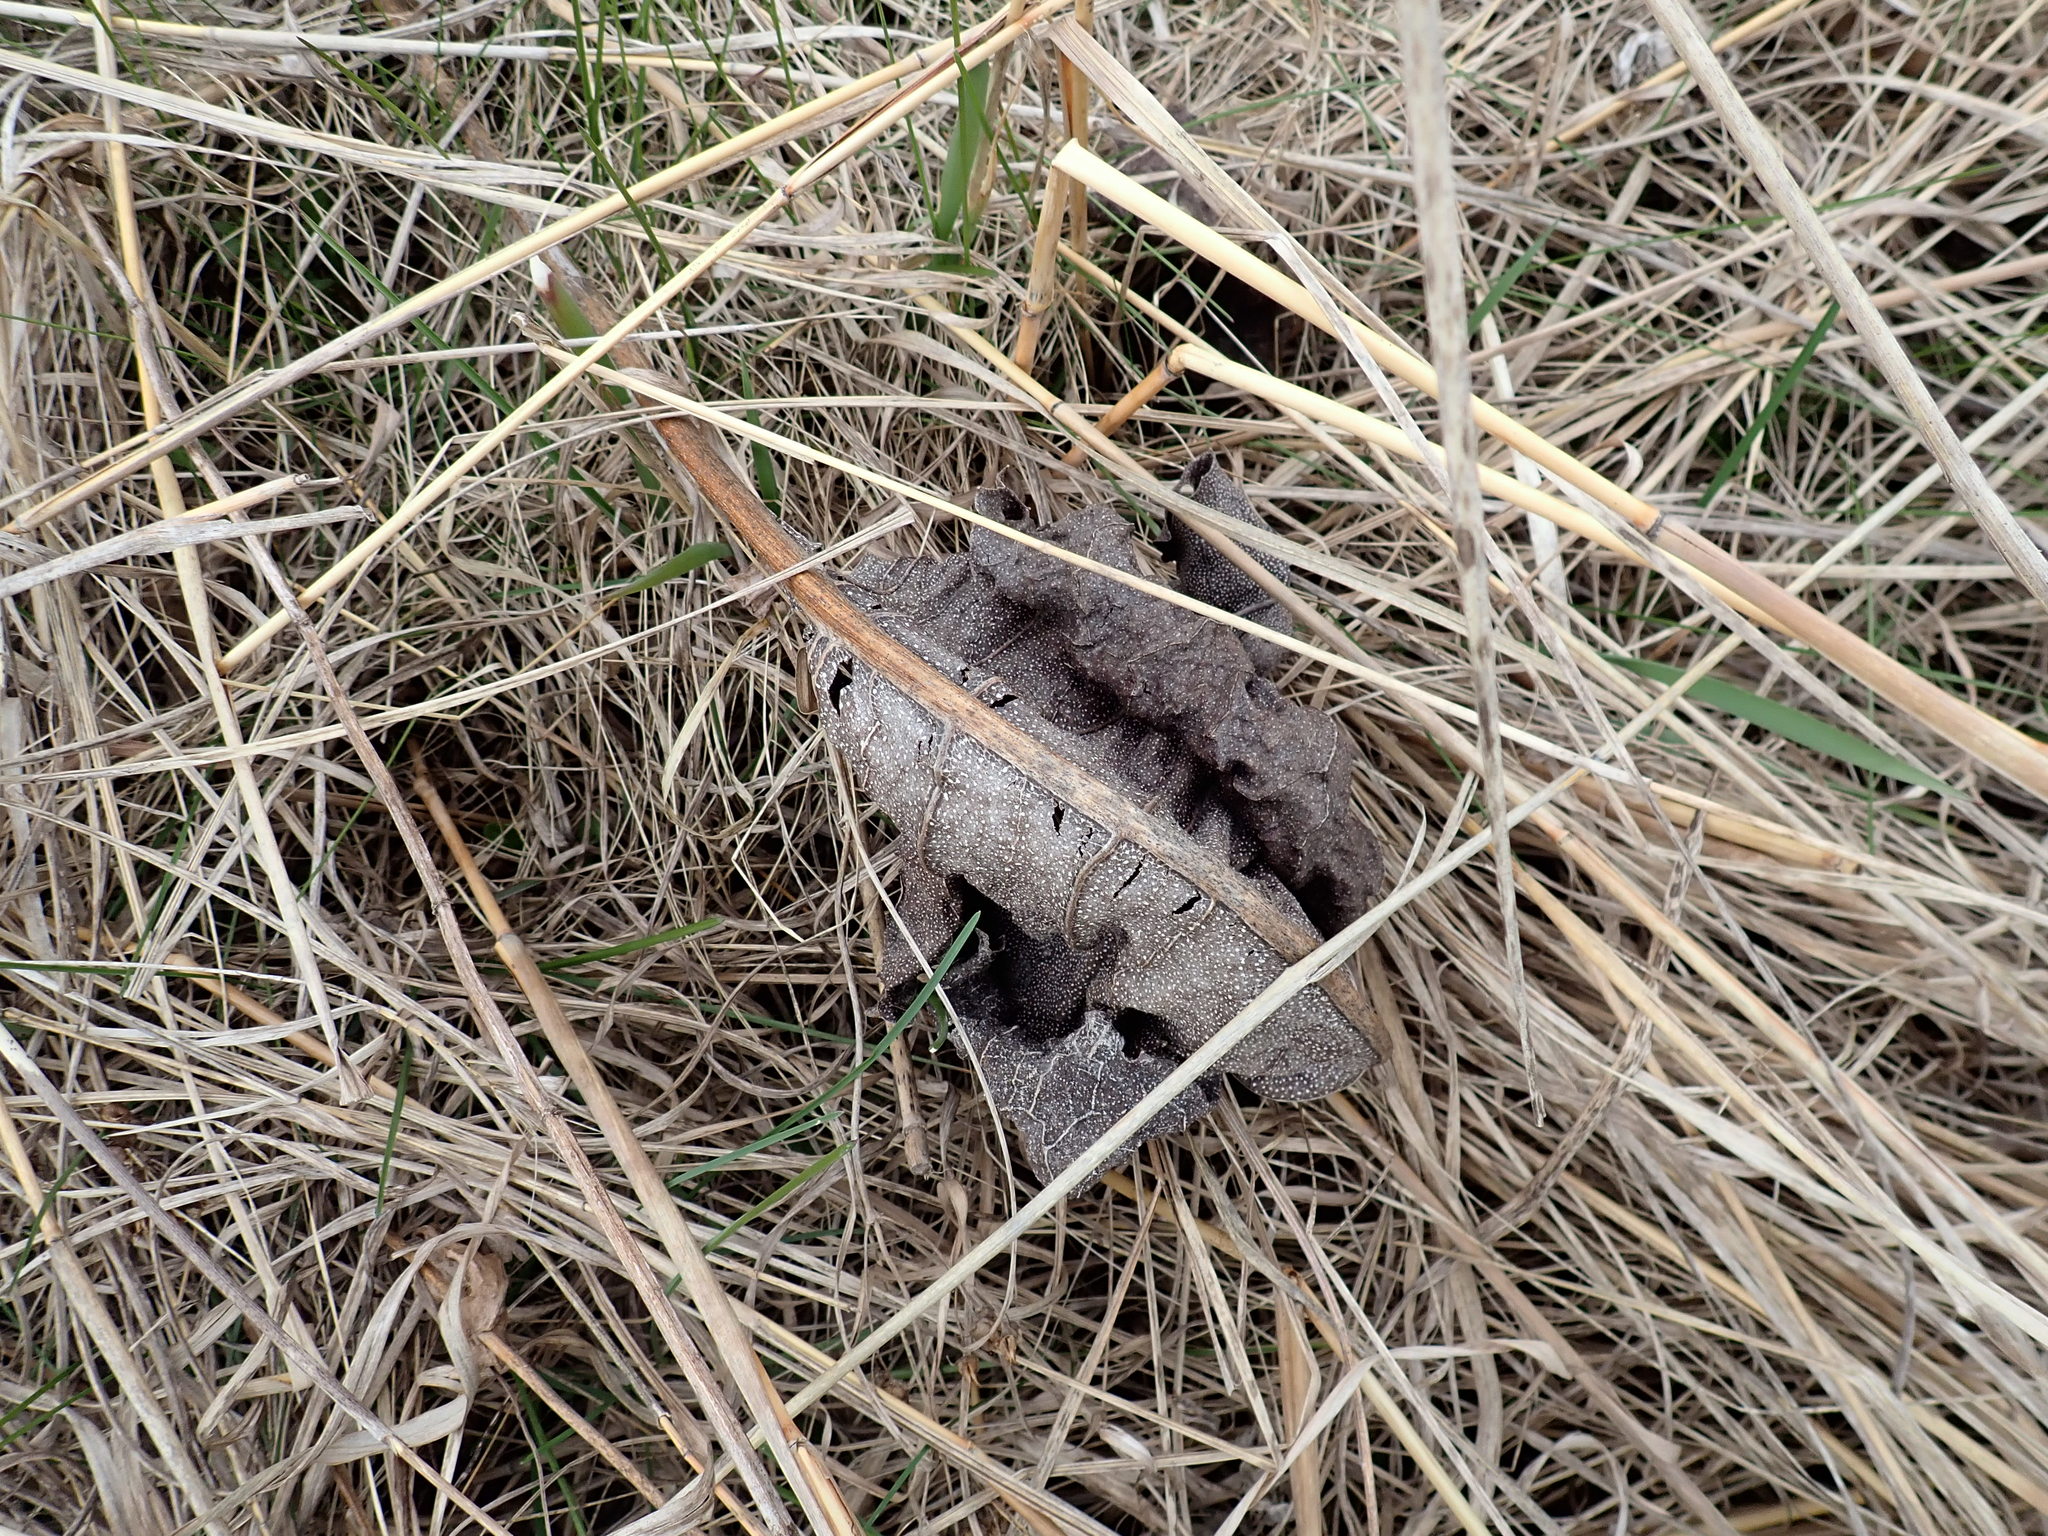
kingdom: Plantae
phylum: Tracheophyta
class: Magnoliopsida
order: Asterales
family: Asteraceae
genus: Silphium
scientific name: Silphium terebinthinaceum
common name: Basal-leaf rosinweed
